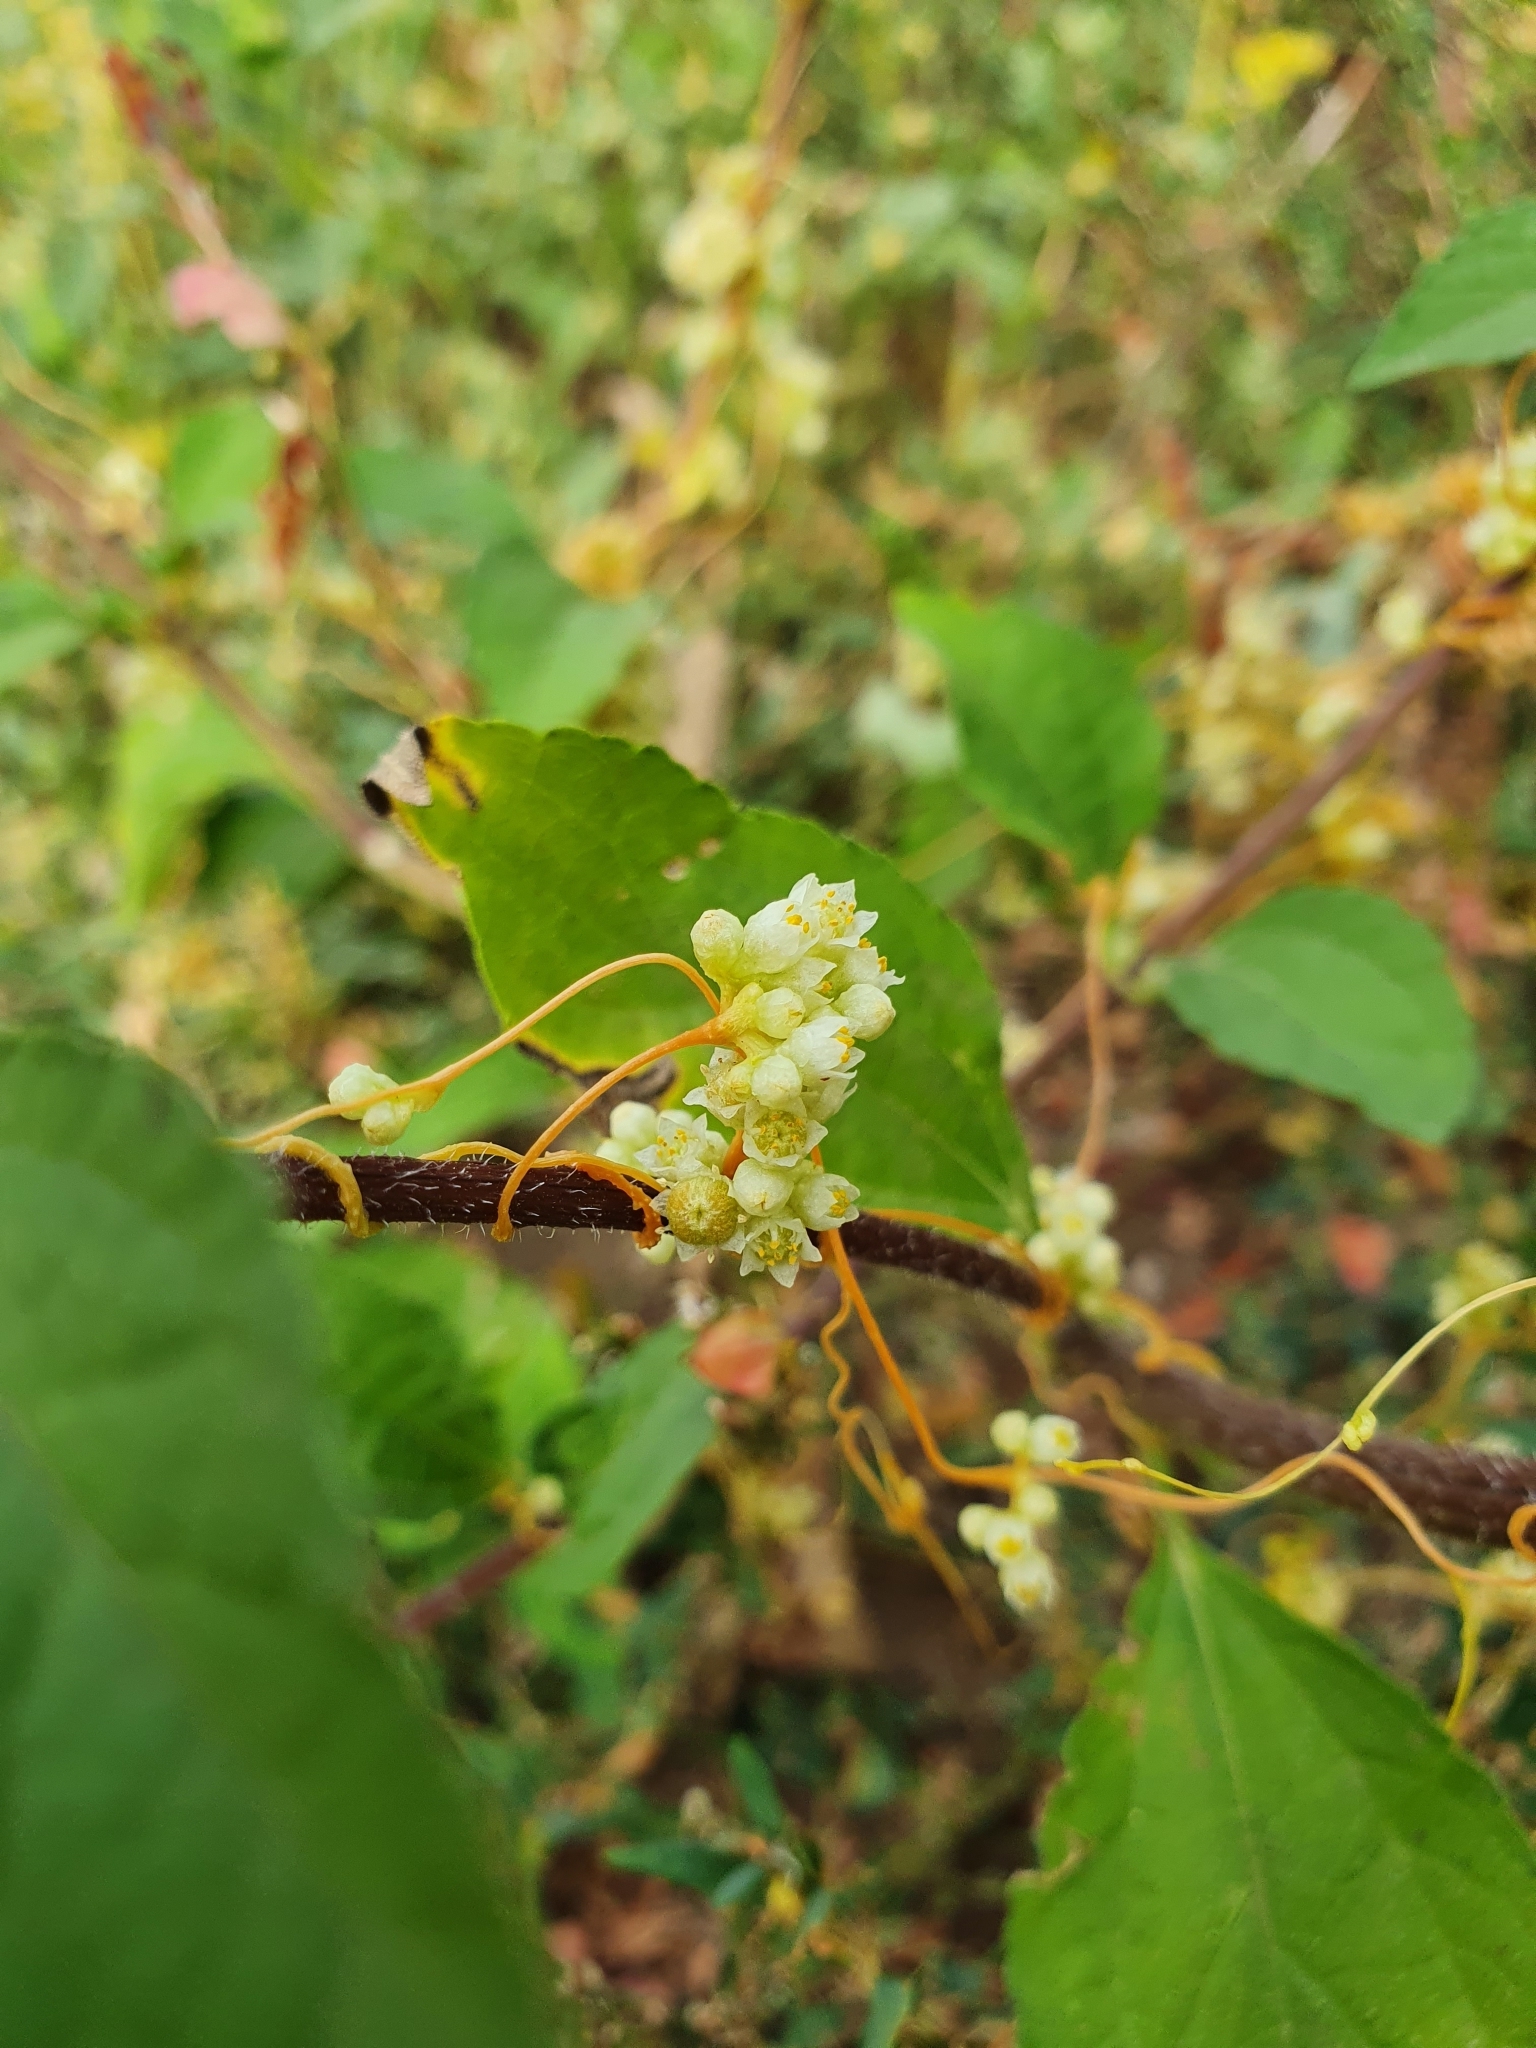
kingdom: Plantae
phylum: Tracheophyta
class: Magnoliopsida
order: Solanales
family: Convolvulaceae
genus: Cuscuta
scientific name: Cuscuta campestris
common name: Yellow dodder
